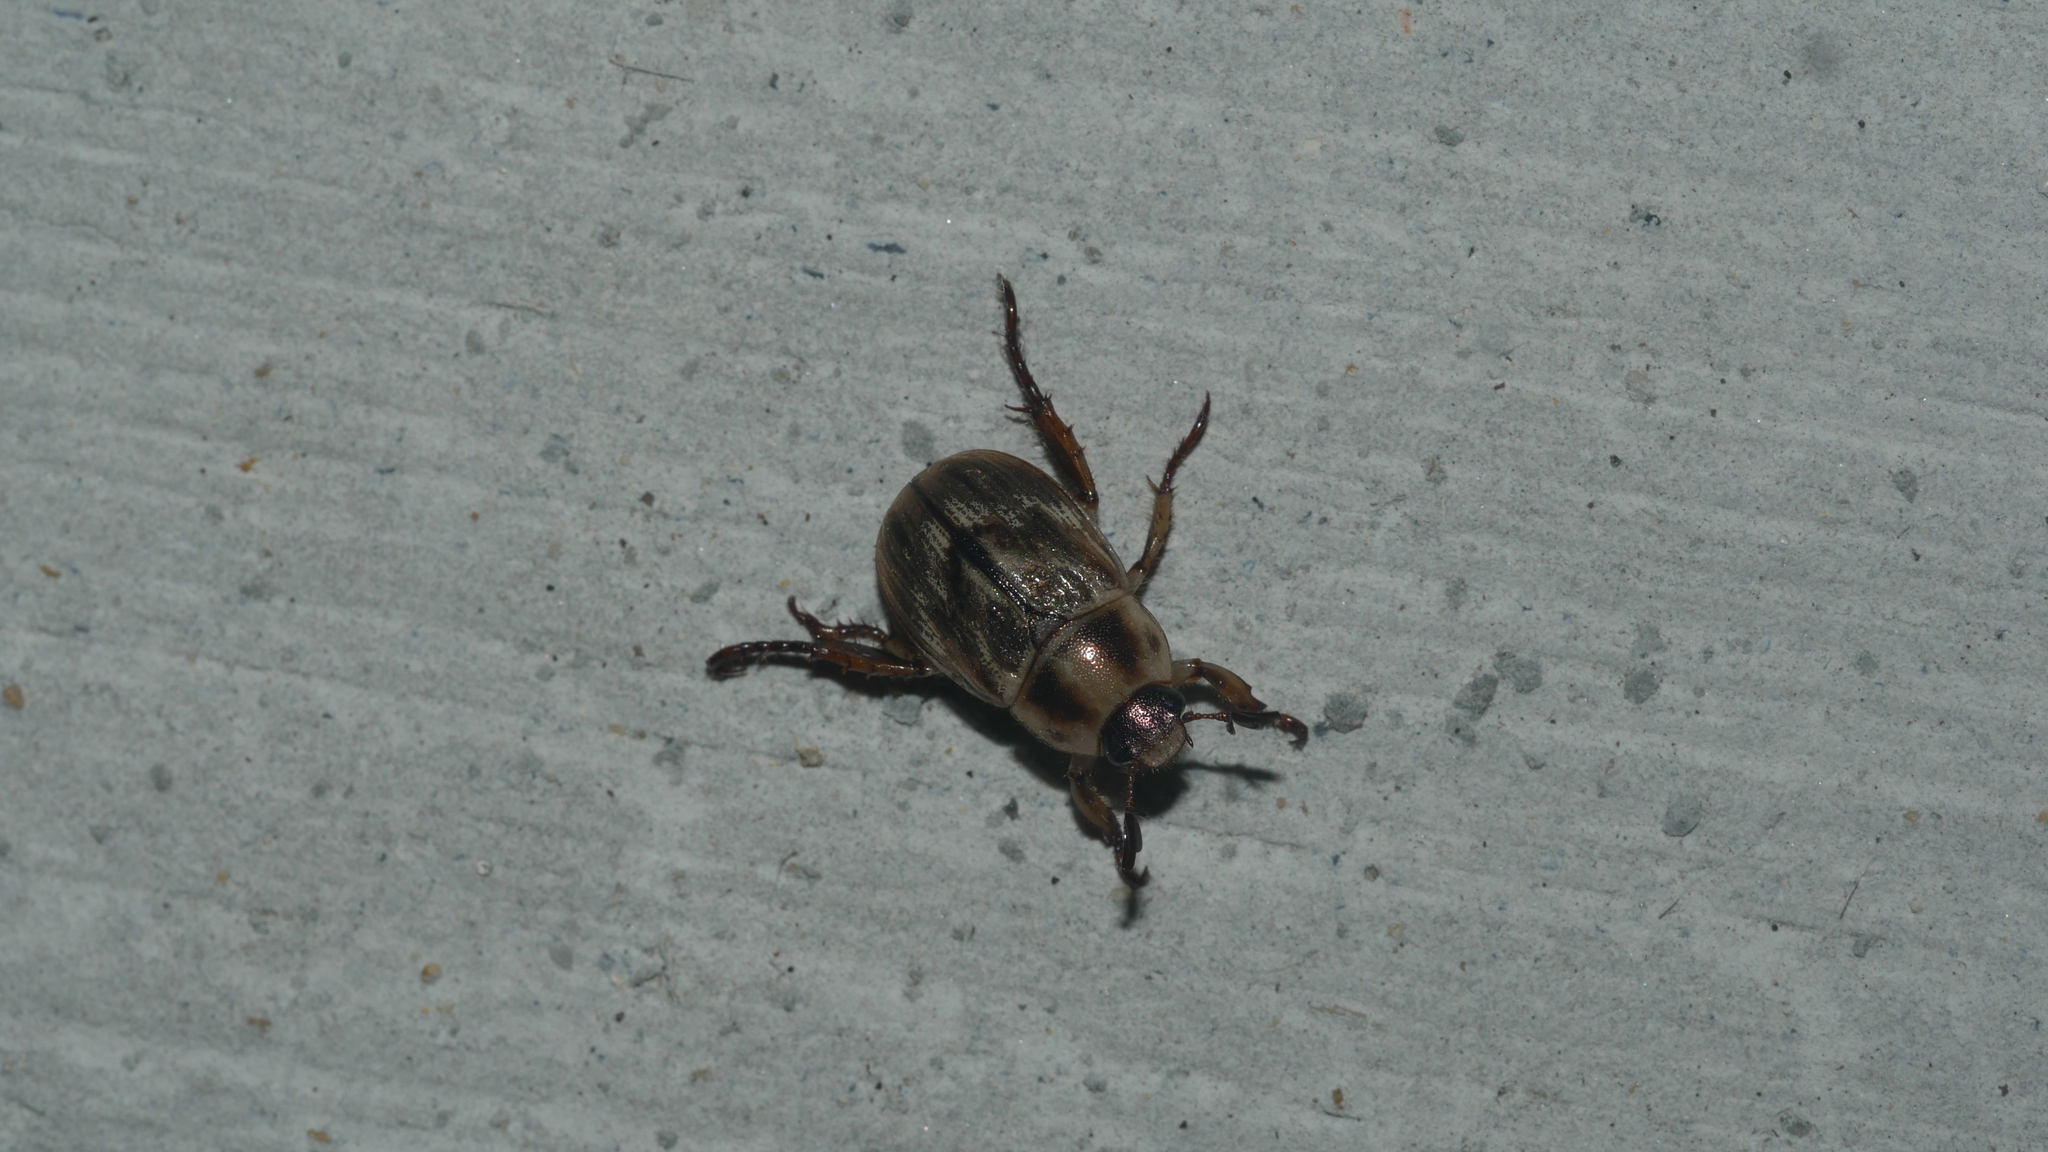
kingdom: Animalia
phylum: Arthropoda
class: Insecta
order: Coleoptera
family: Scarabaeidae
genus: Exomala
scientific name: Exomala orientalis
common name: Oriental beetle
